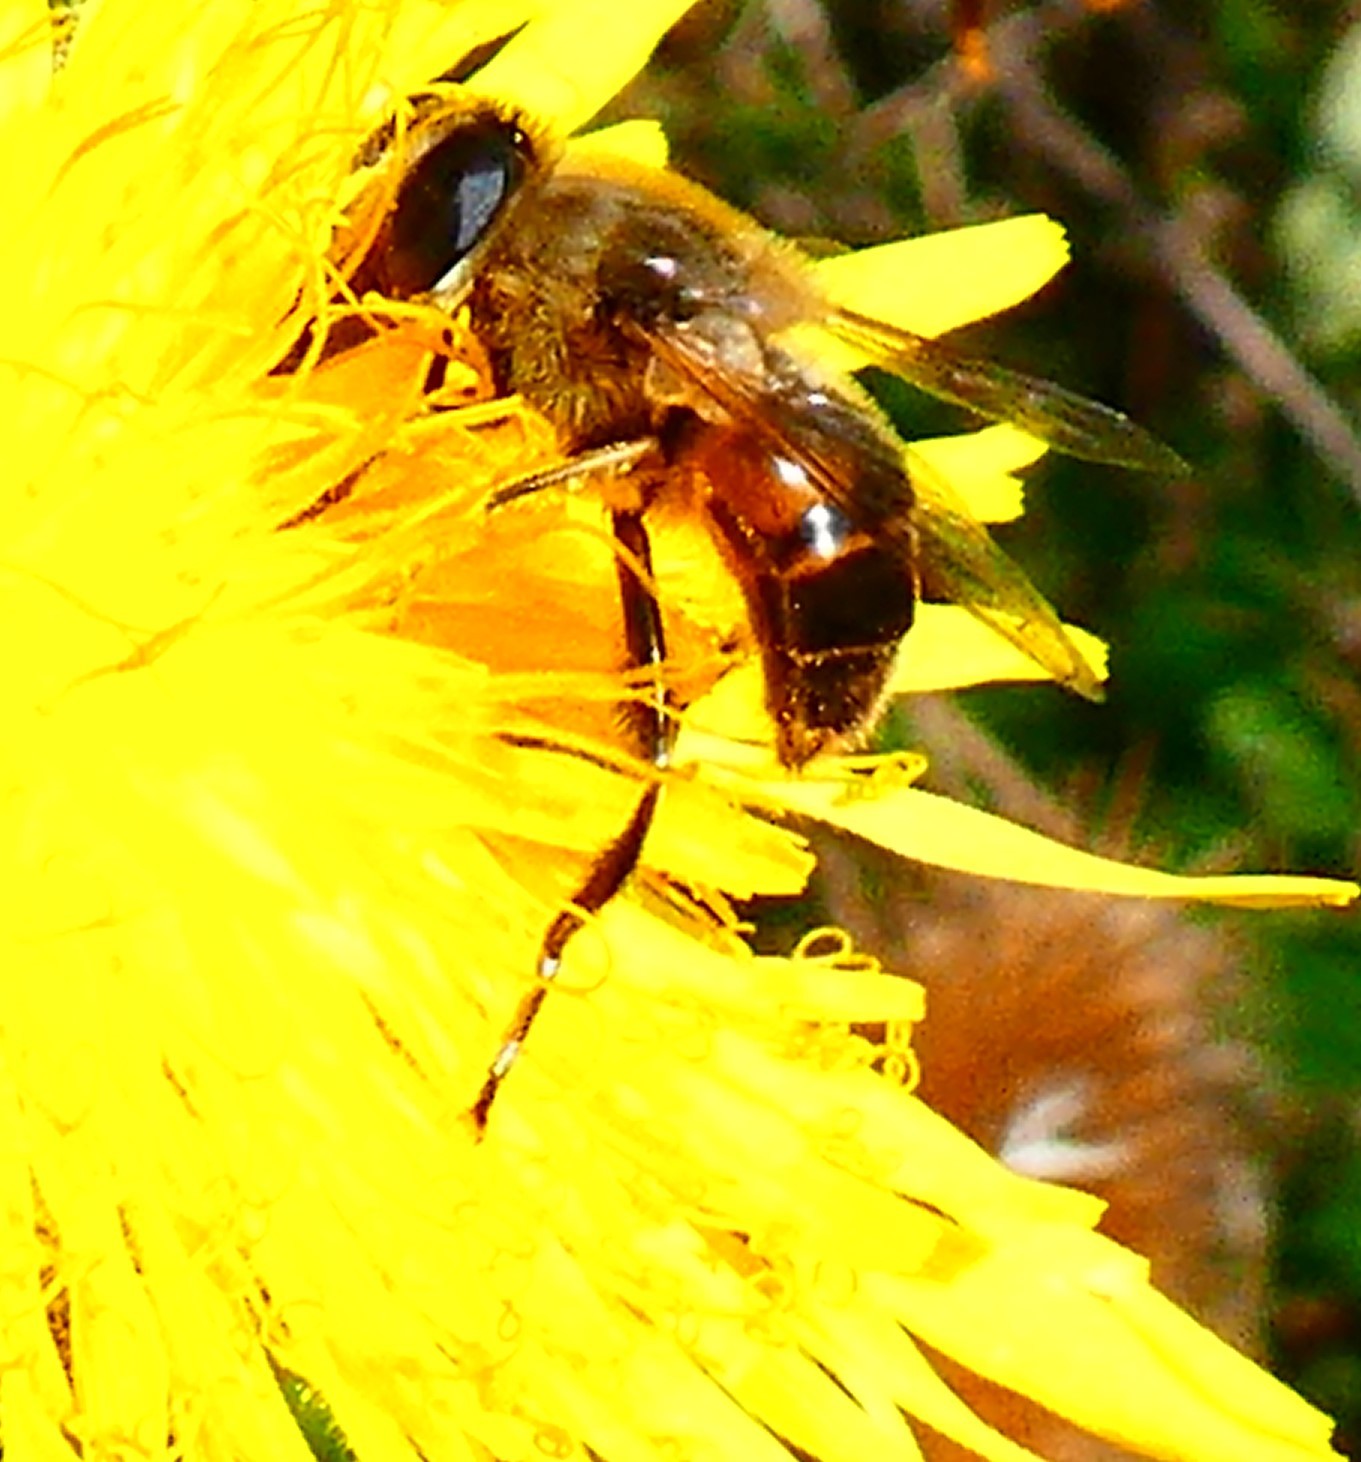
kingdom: Animalia
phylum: Arthropoda
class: Insecta
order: Diptera
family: Syrphidae
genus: Eristalis
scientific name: Eristalis tenax
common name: Drone fly
